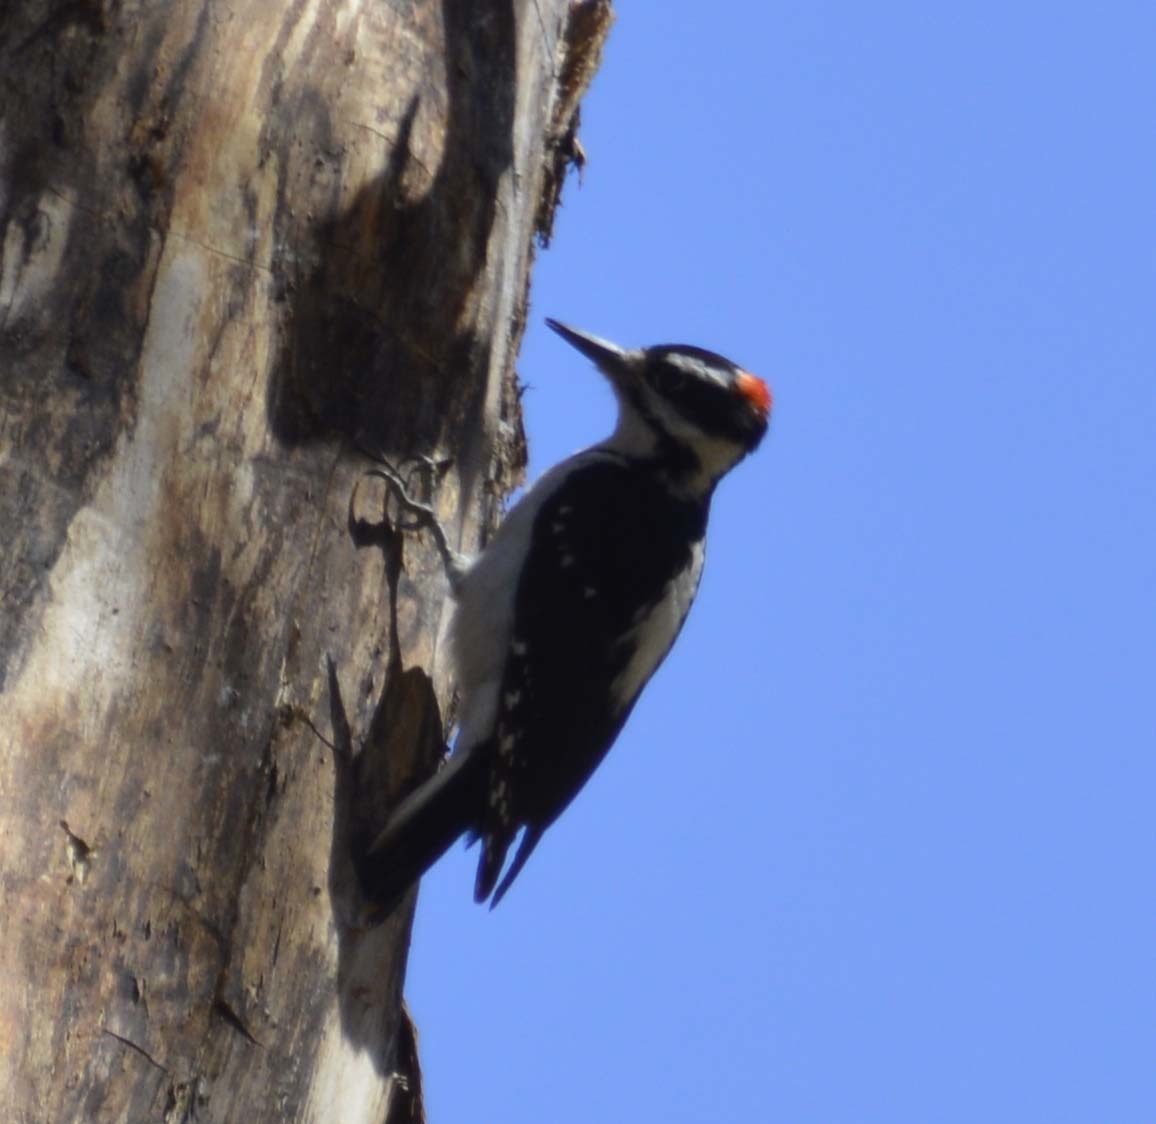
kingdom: Animalia
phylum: Chordata
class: Aves
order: Piciformes
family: Picidae
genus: Leuconotopicus
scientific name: Leuconotopicus villosus
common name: Hairy woodpecker
